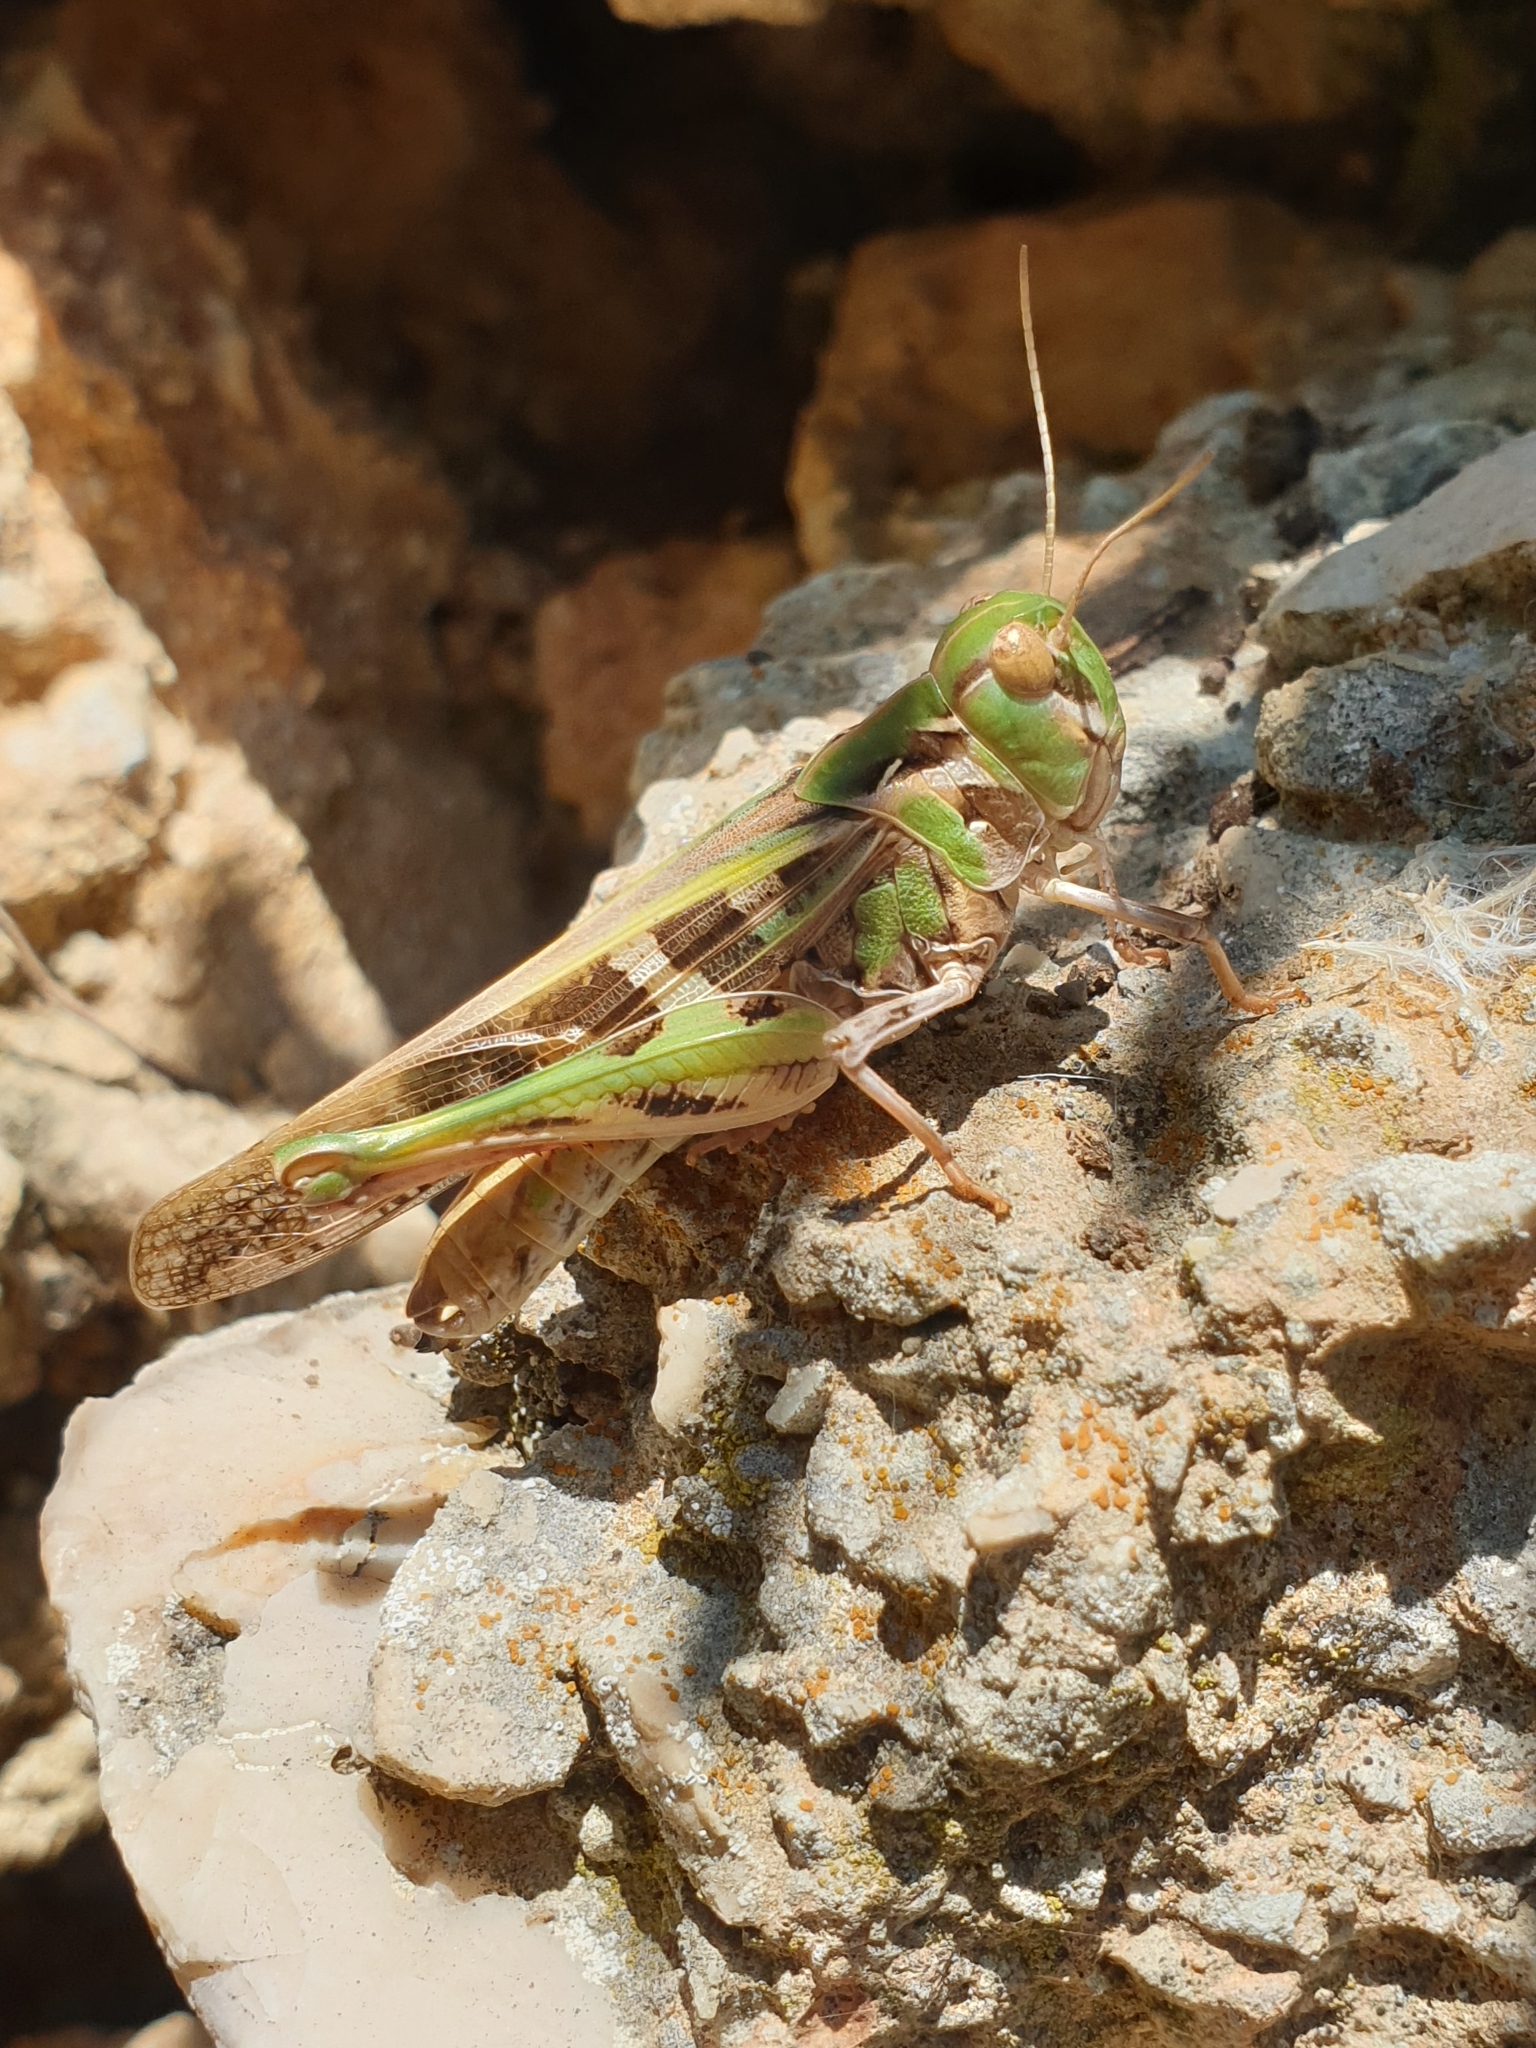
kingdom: Animalia
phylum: Arthropoda
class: Insecta
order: Orthoptera
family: Acrididae
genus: Oedaleus
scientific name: Oedaleus decorus
